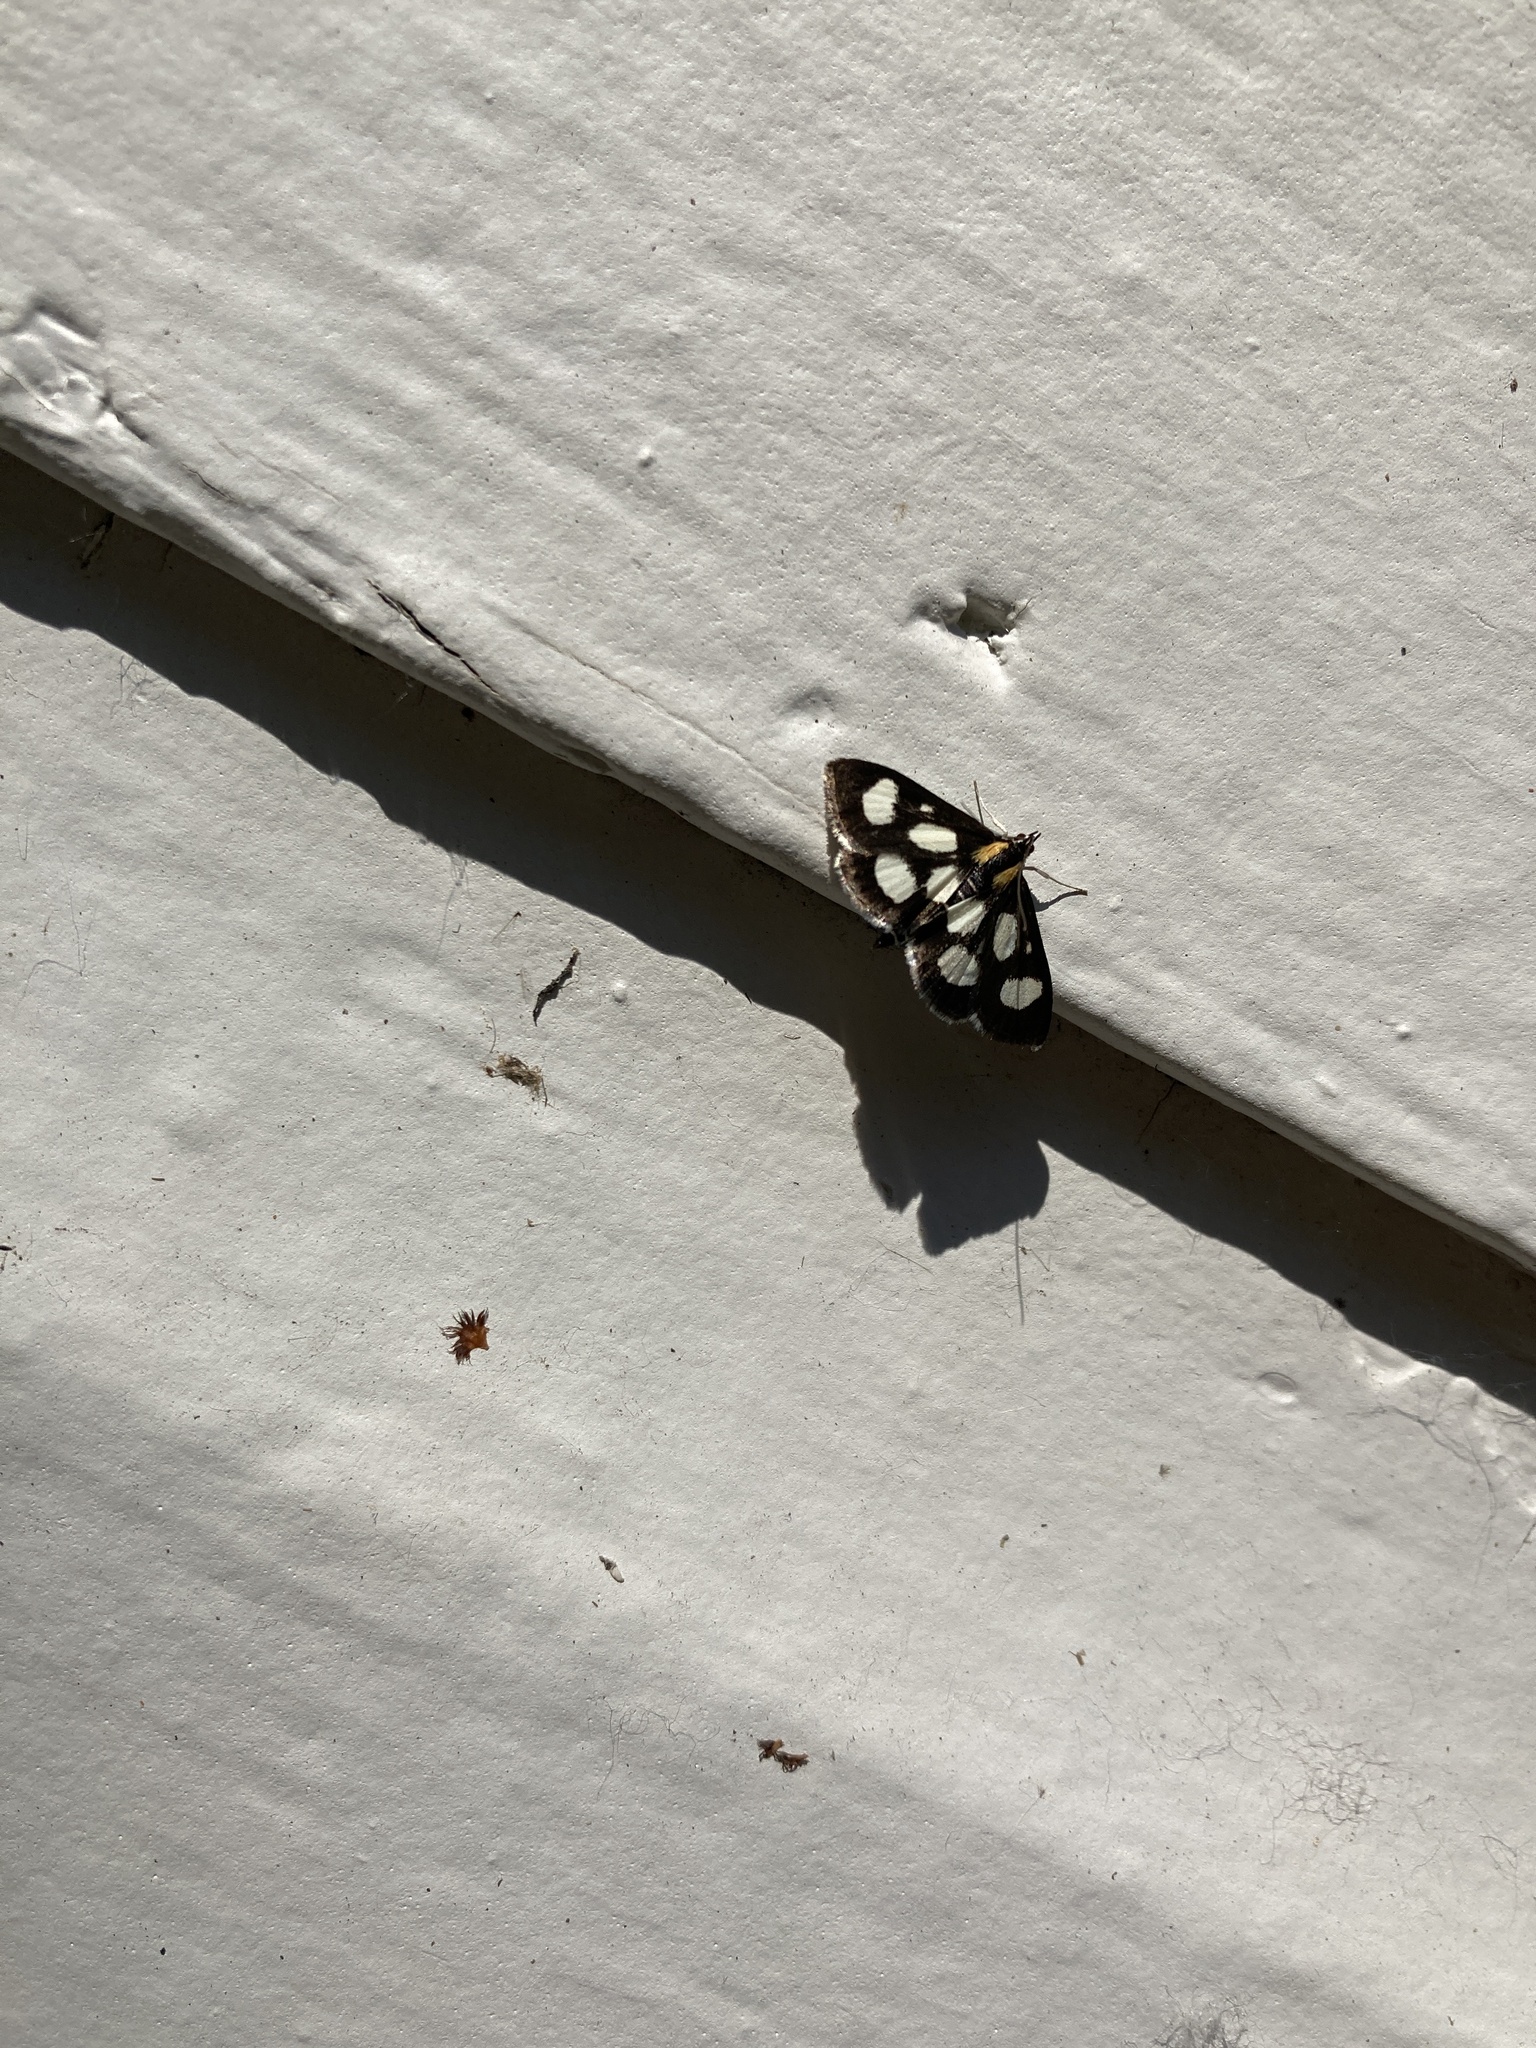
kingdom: Animalia
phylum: Arthropoda
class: Insecta
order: Lepidoptera
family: Crambidae
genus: Anania
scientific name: Anania funebris
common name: White-spotted sable moth
